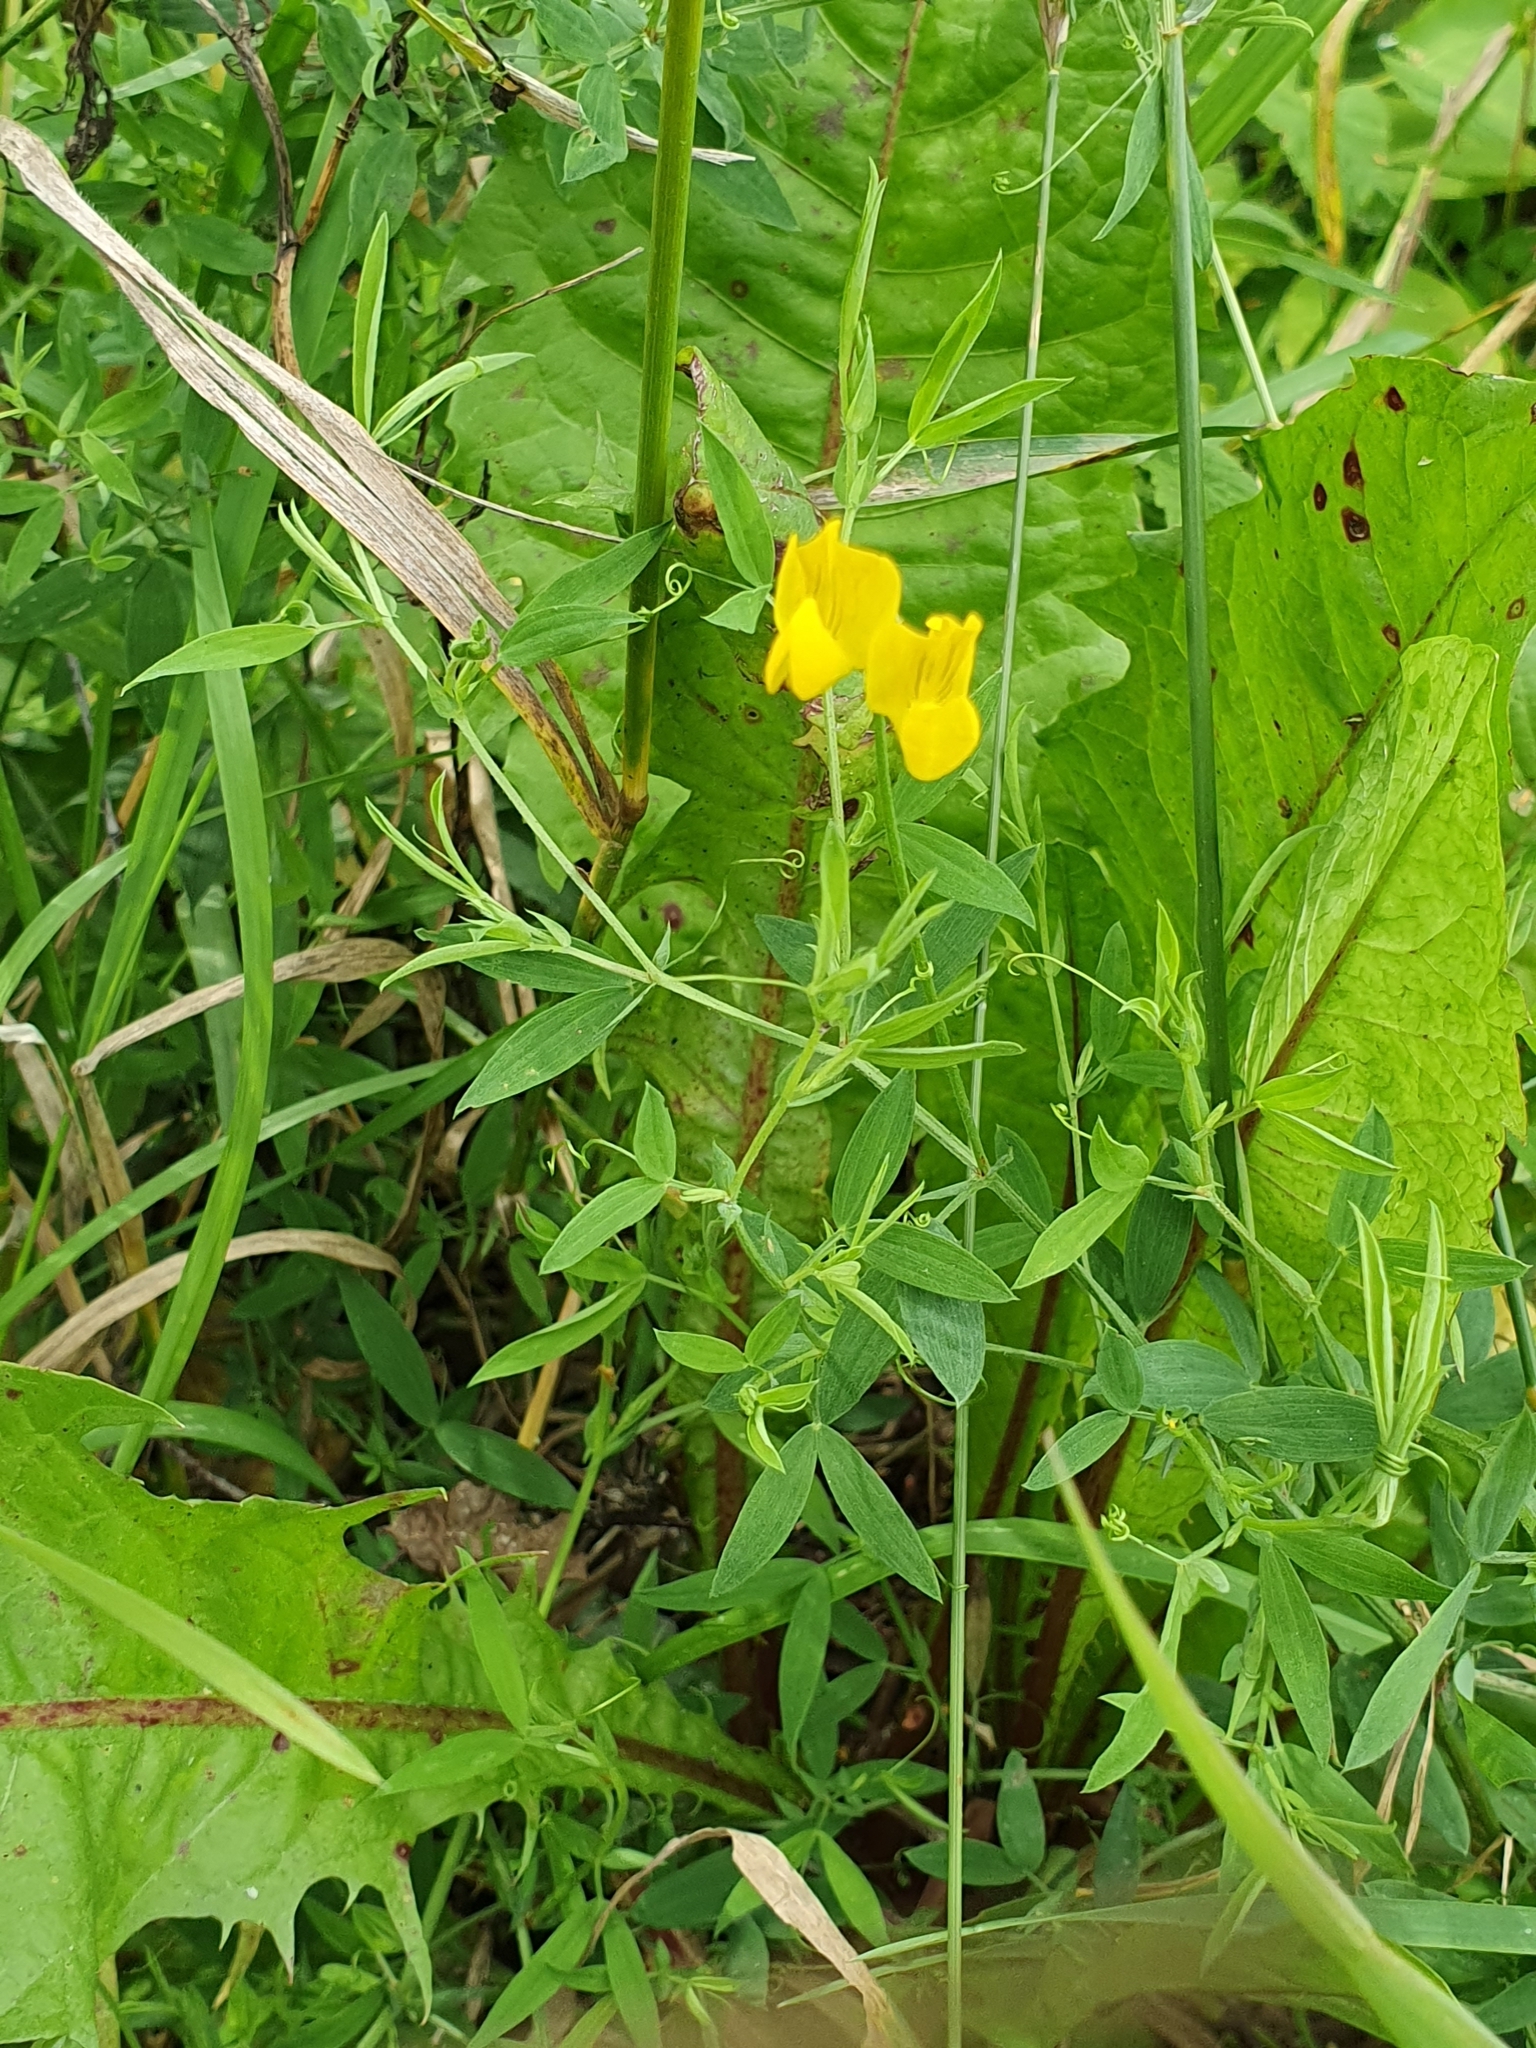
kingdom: Plantae
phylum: Tracheophyta
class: Magnoliopsida
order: Fabales
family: Fabaceae
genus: Lathyrus
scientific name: Lathyrus pratensis
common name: Meadow vetchling
